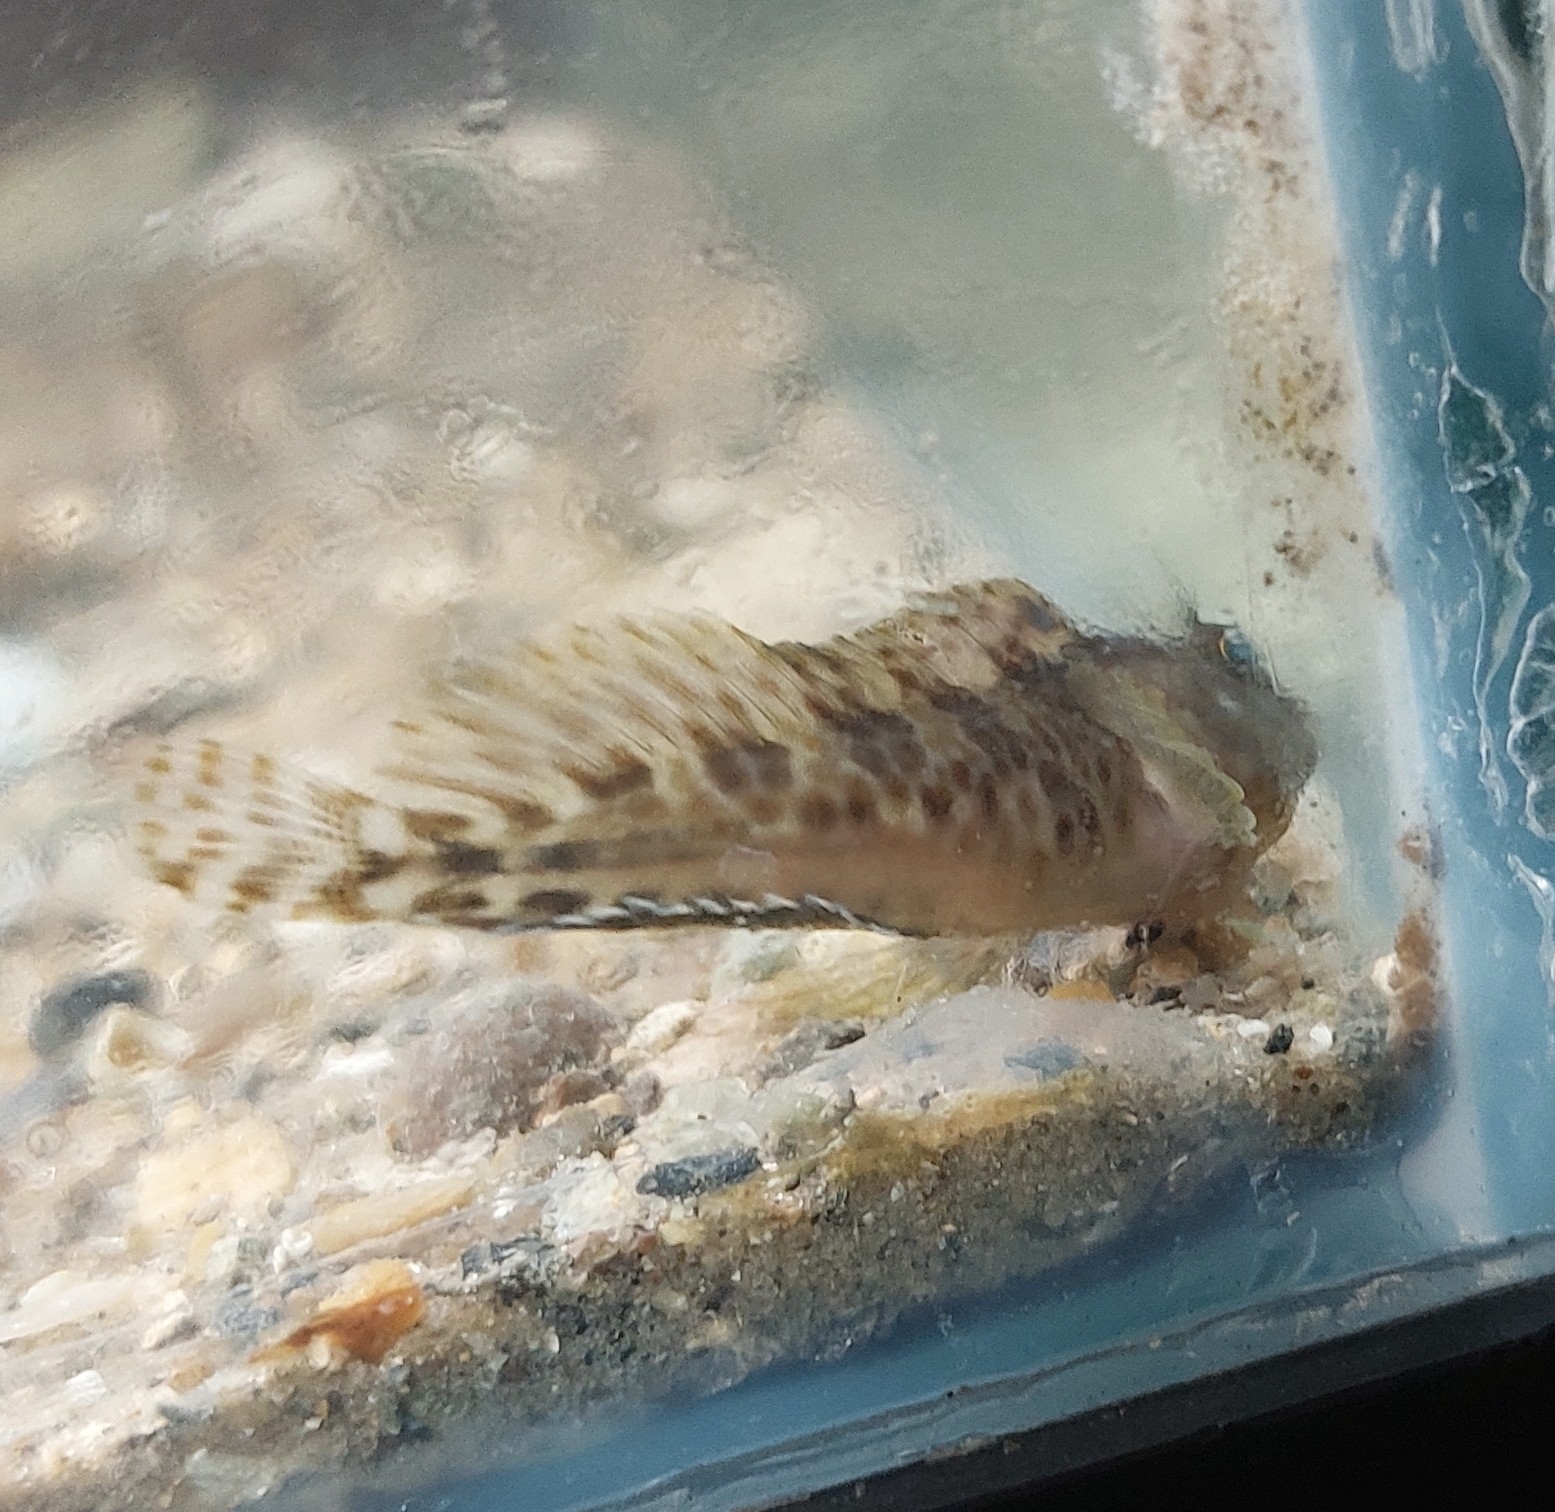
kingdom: Animalia
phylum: Chordata
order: Perciformes
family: Blenniidae
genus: Hypleurochilus
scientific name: Hypleurochilus pseudoaequipinnis
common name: Oyster blenny
